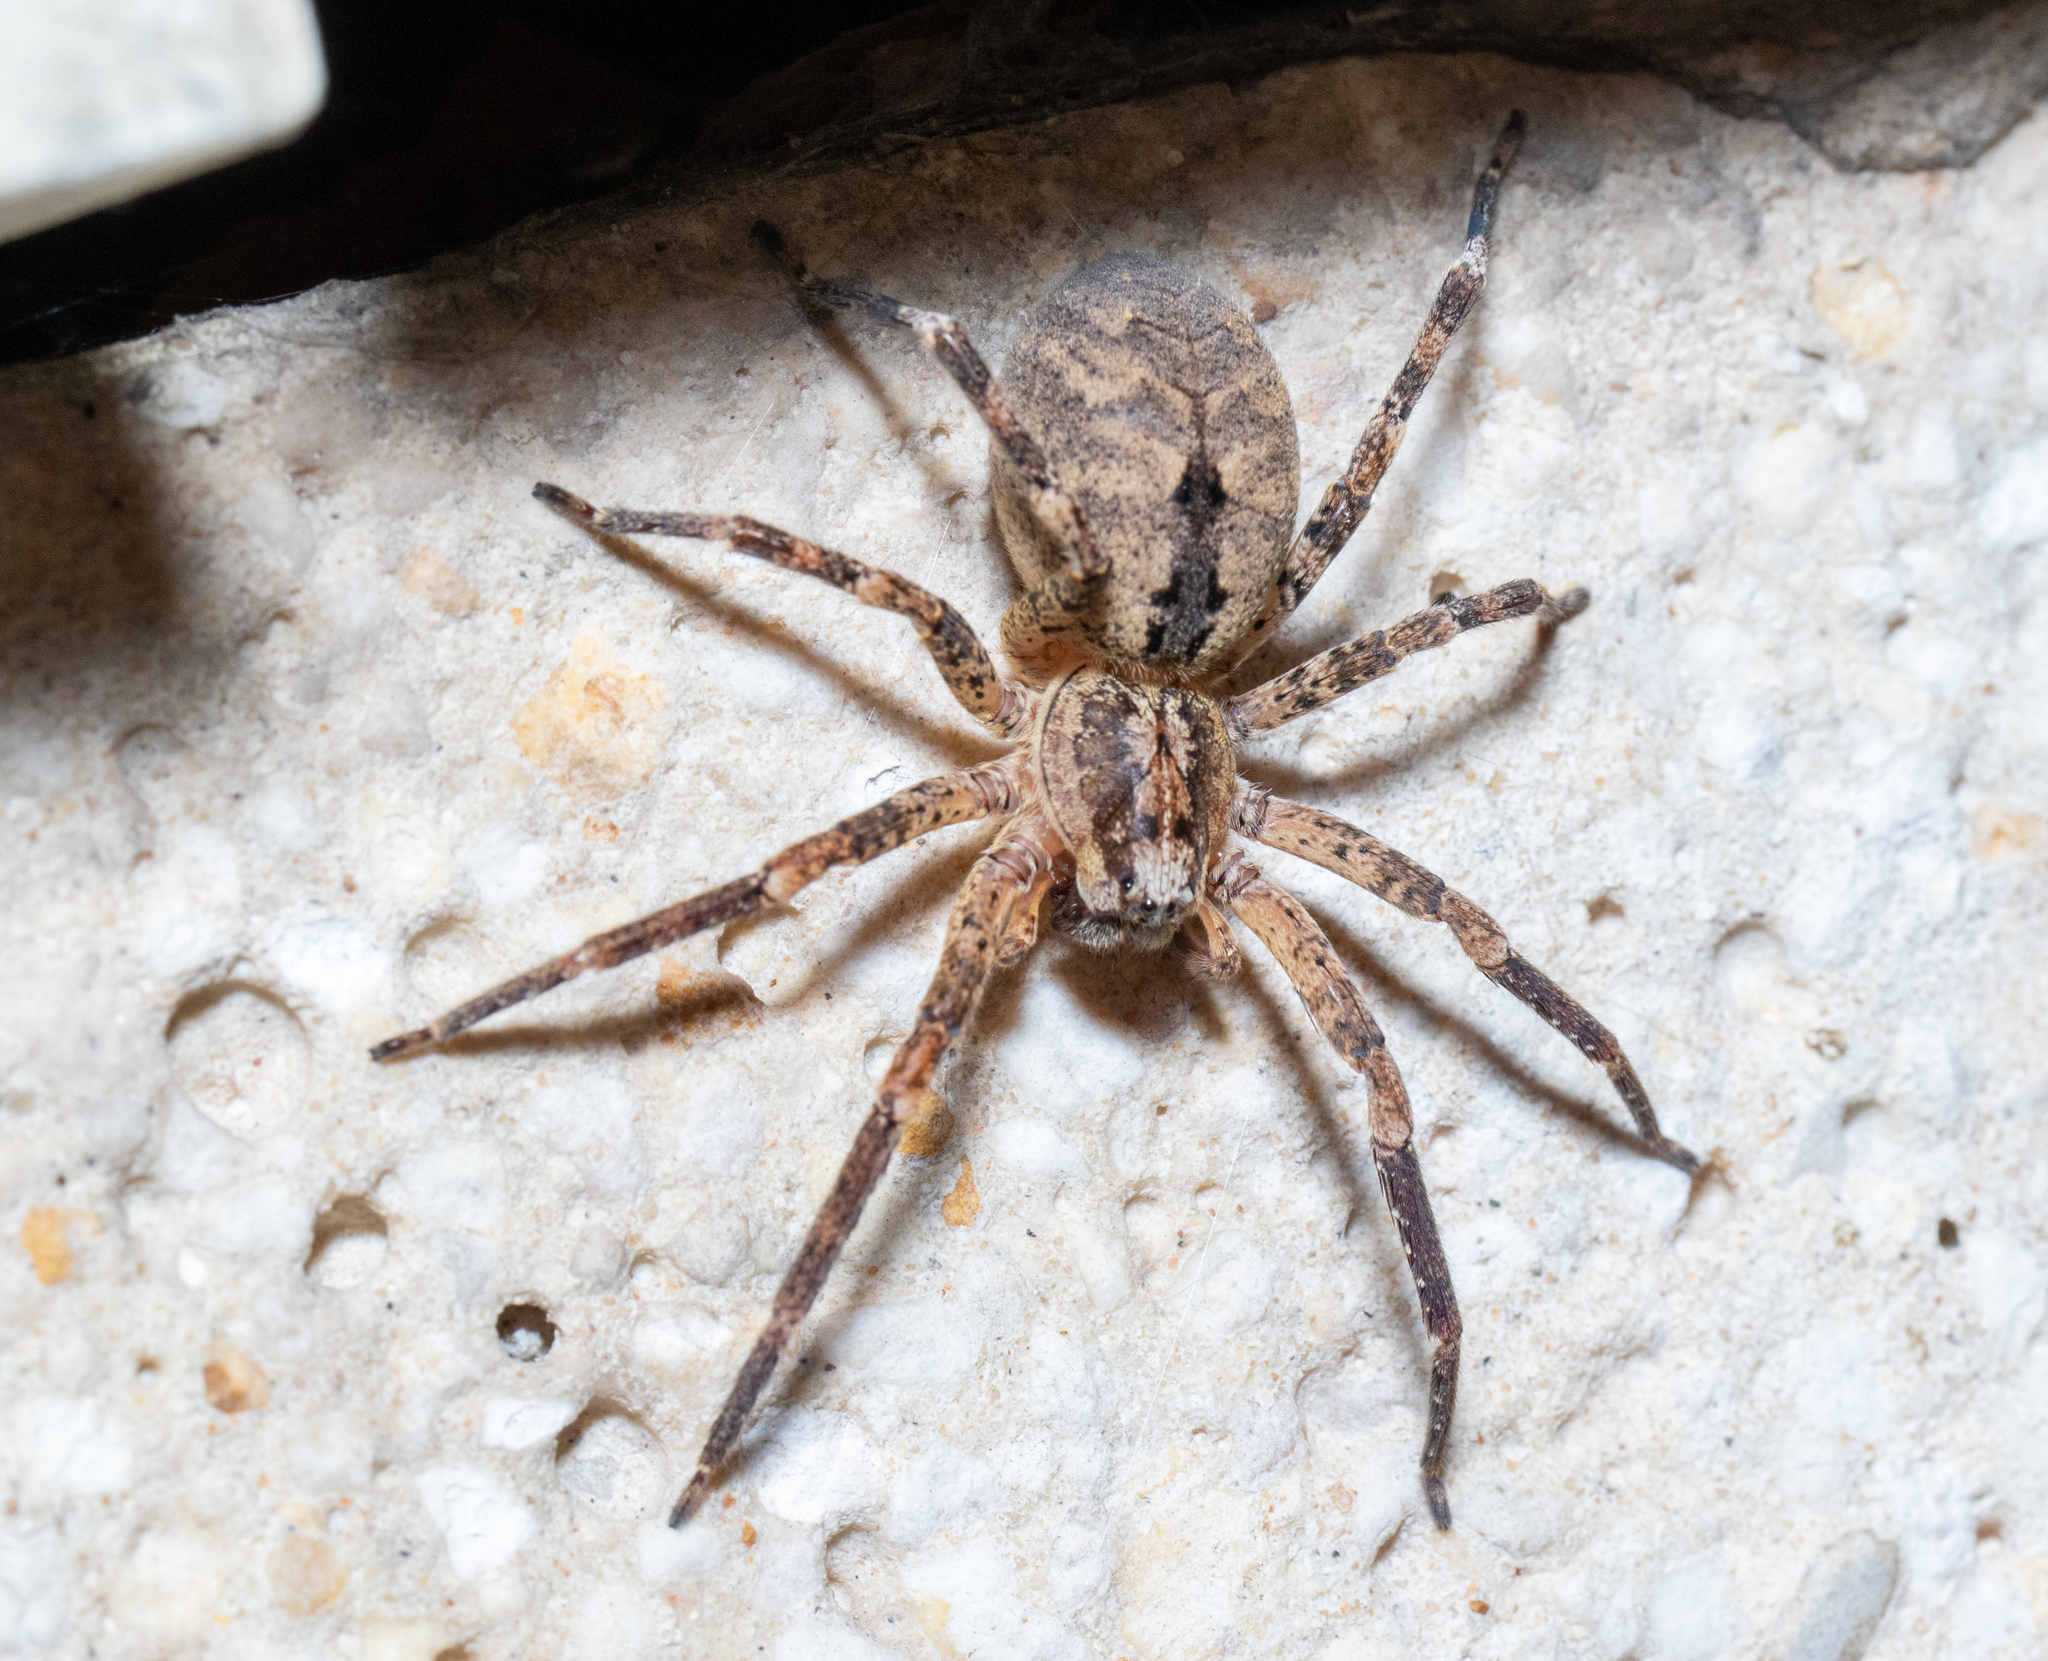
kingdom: Animalia
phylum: Arthropoda
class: Arachnida
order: Araneae
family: Zoropsidae
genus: Zoropsis
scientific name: Zoropsis spinimana
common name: Zoropsid spider
